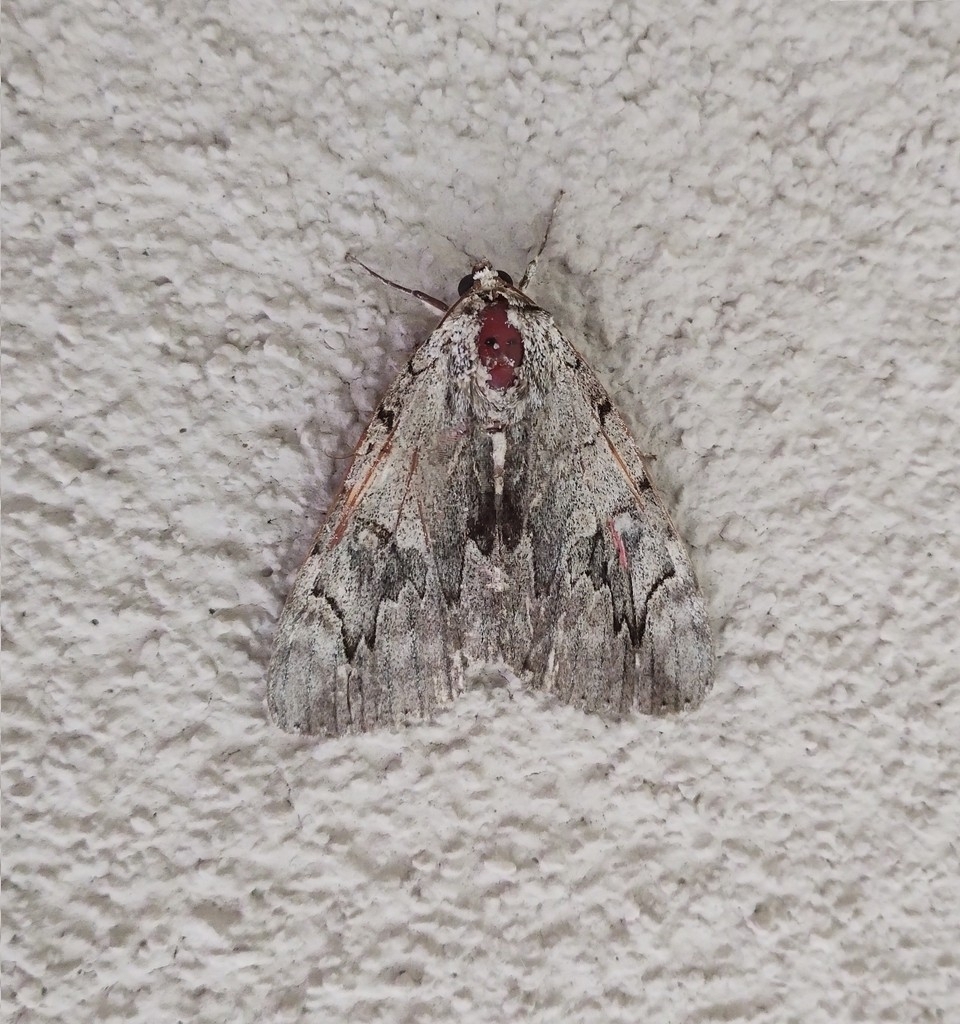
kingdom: Animalia
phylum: Arthropoda
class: Insecta
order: Lepidoptera
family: Erebidae
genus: Catocala
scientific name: Catocala electa
